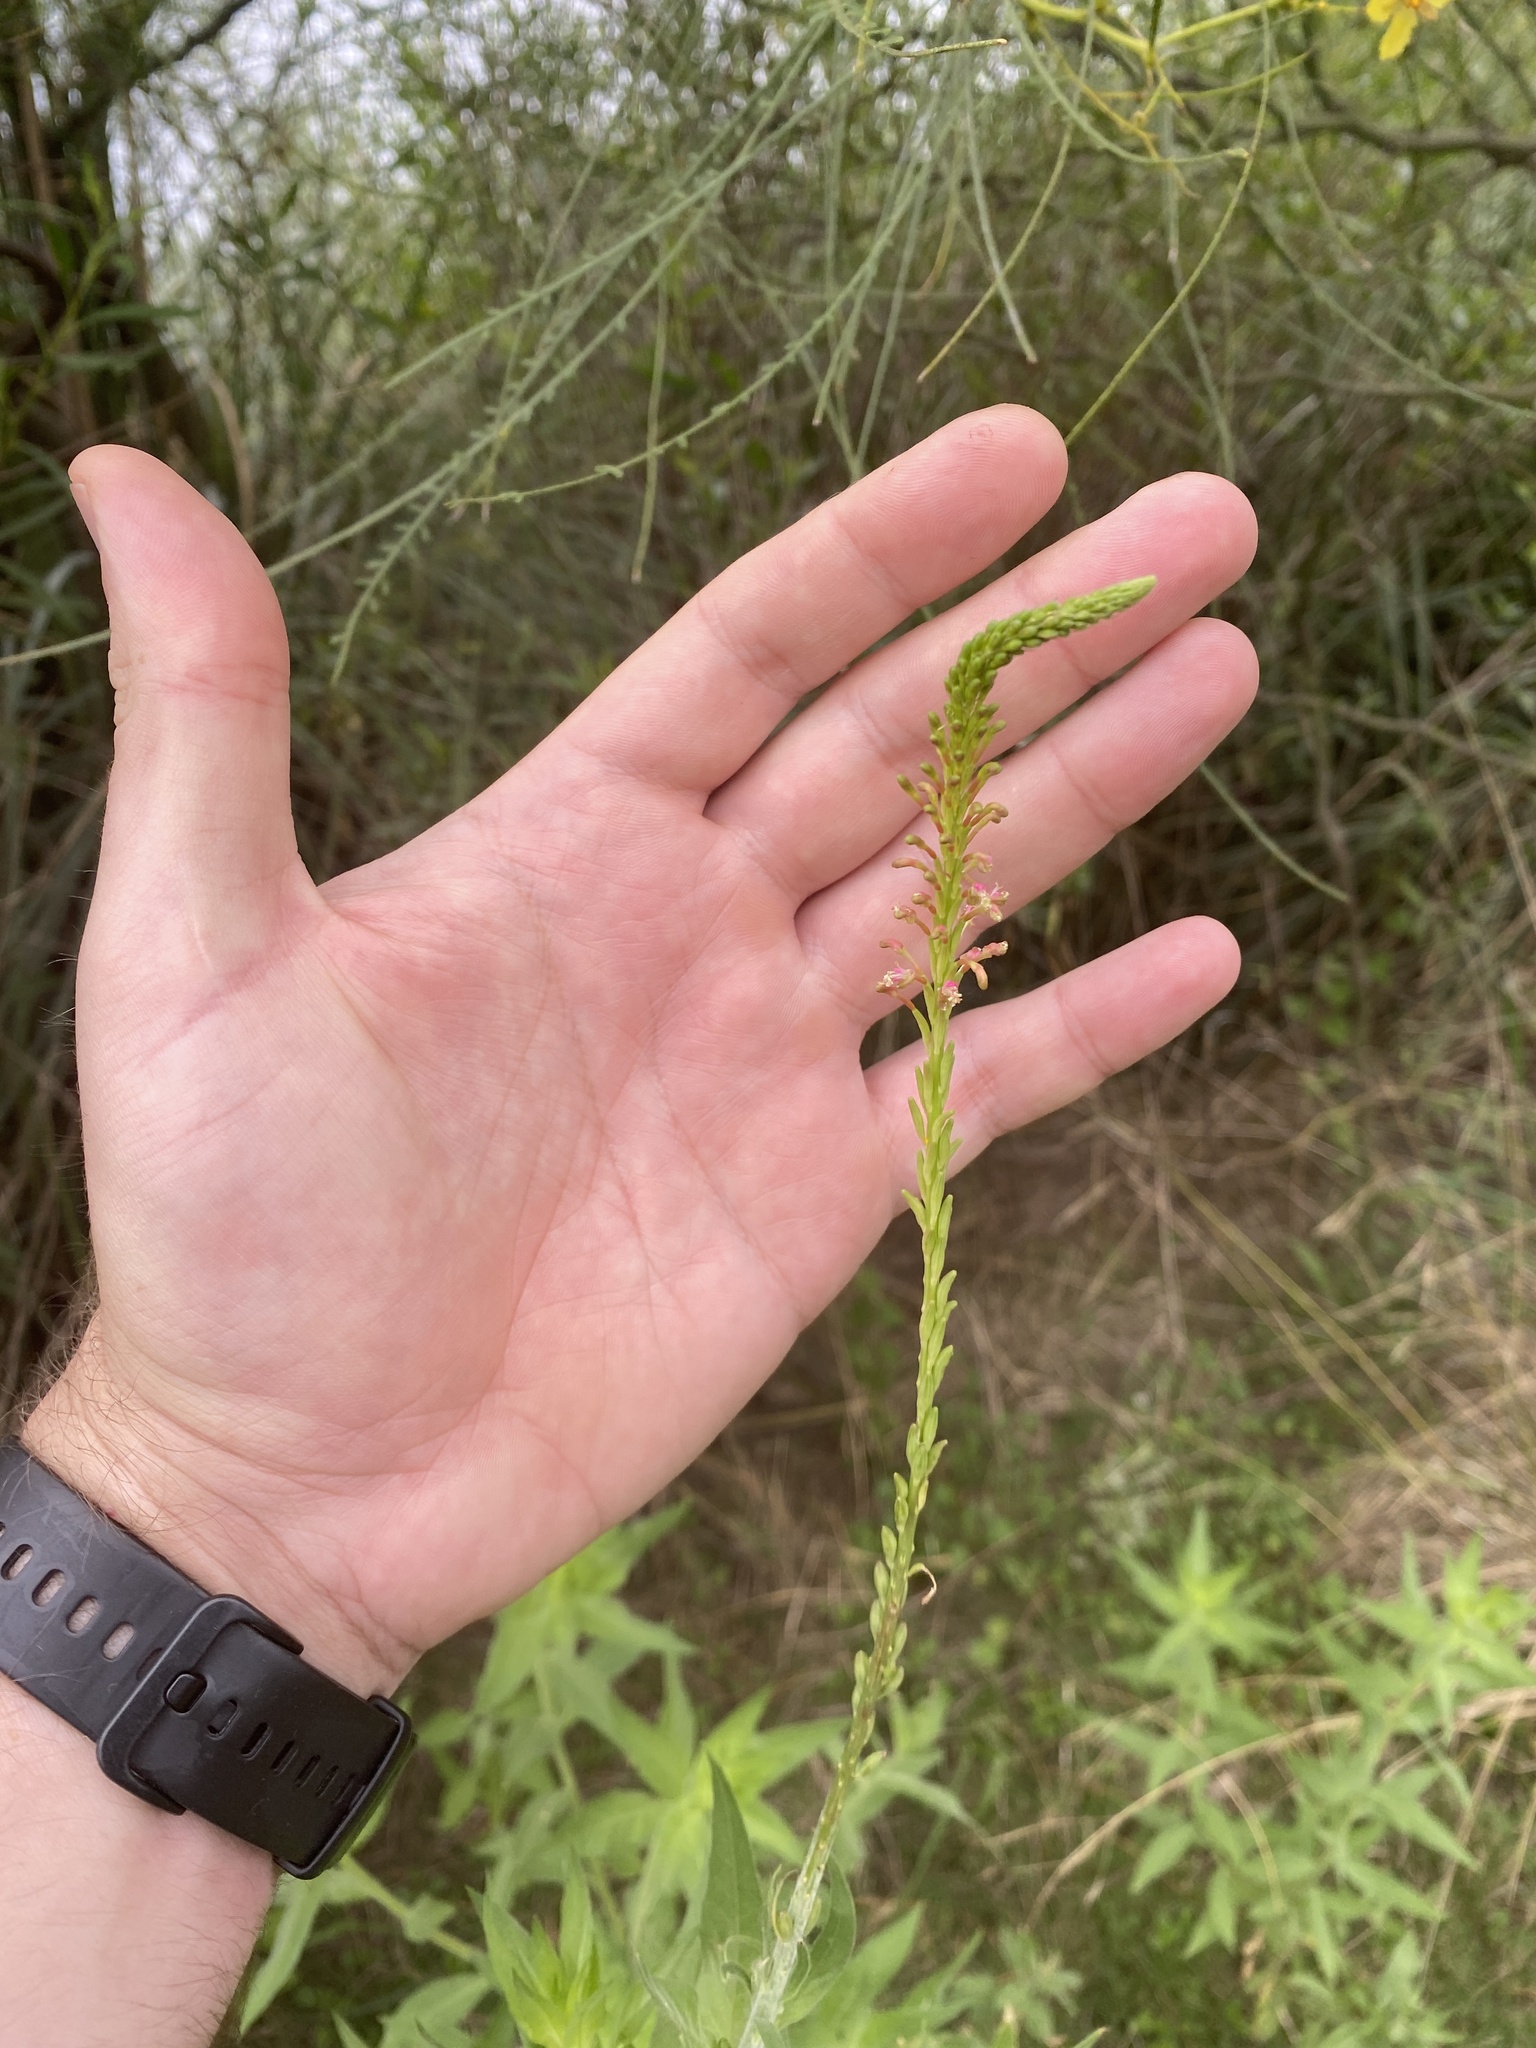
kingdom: Plantae
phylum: Tracheophyta
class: Magnoliopsida
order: Myrtales
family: Onagraceae
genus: Oenothera
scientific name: Oenothera curtiflora
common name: Velvetweed
